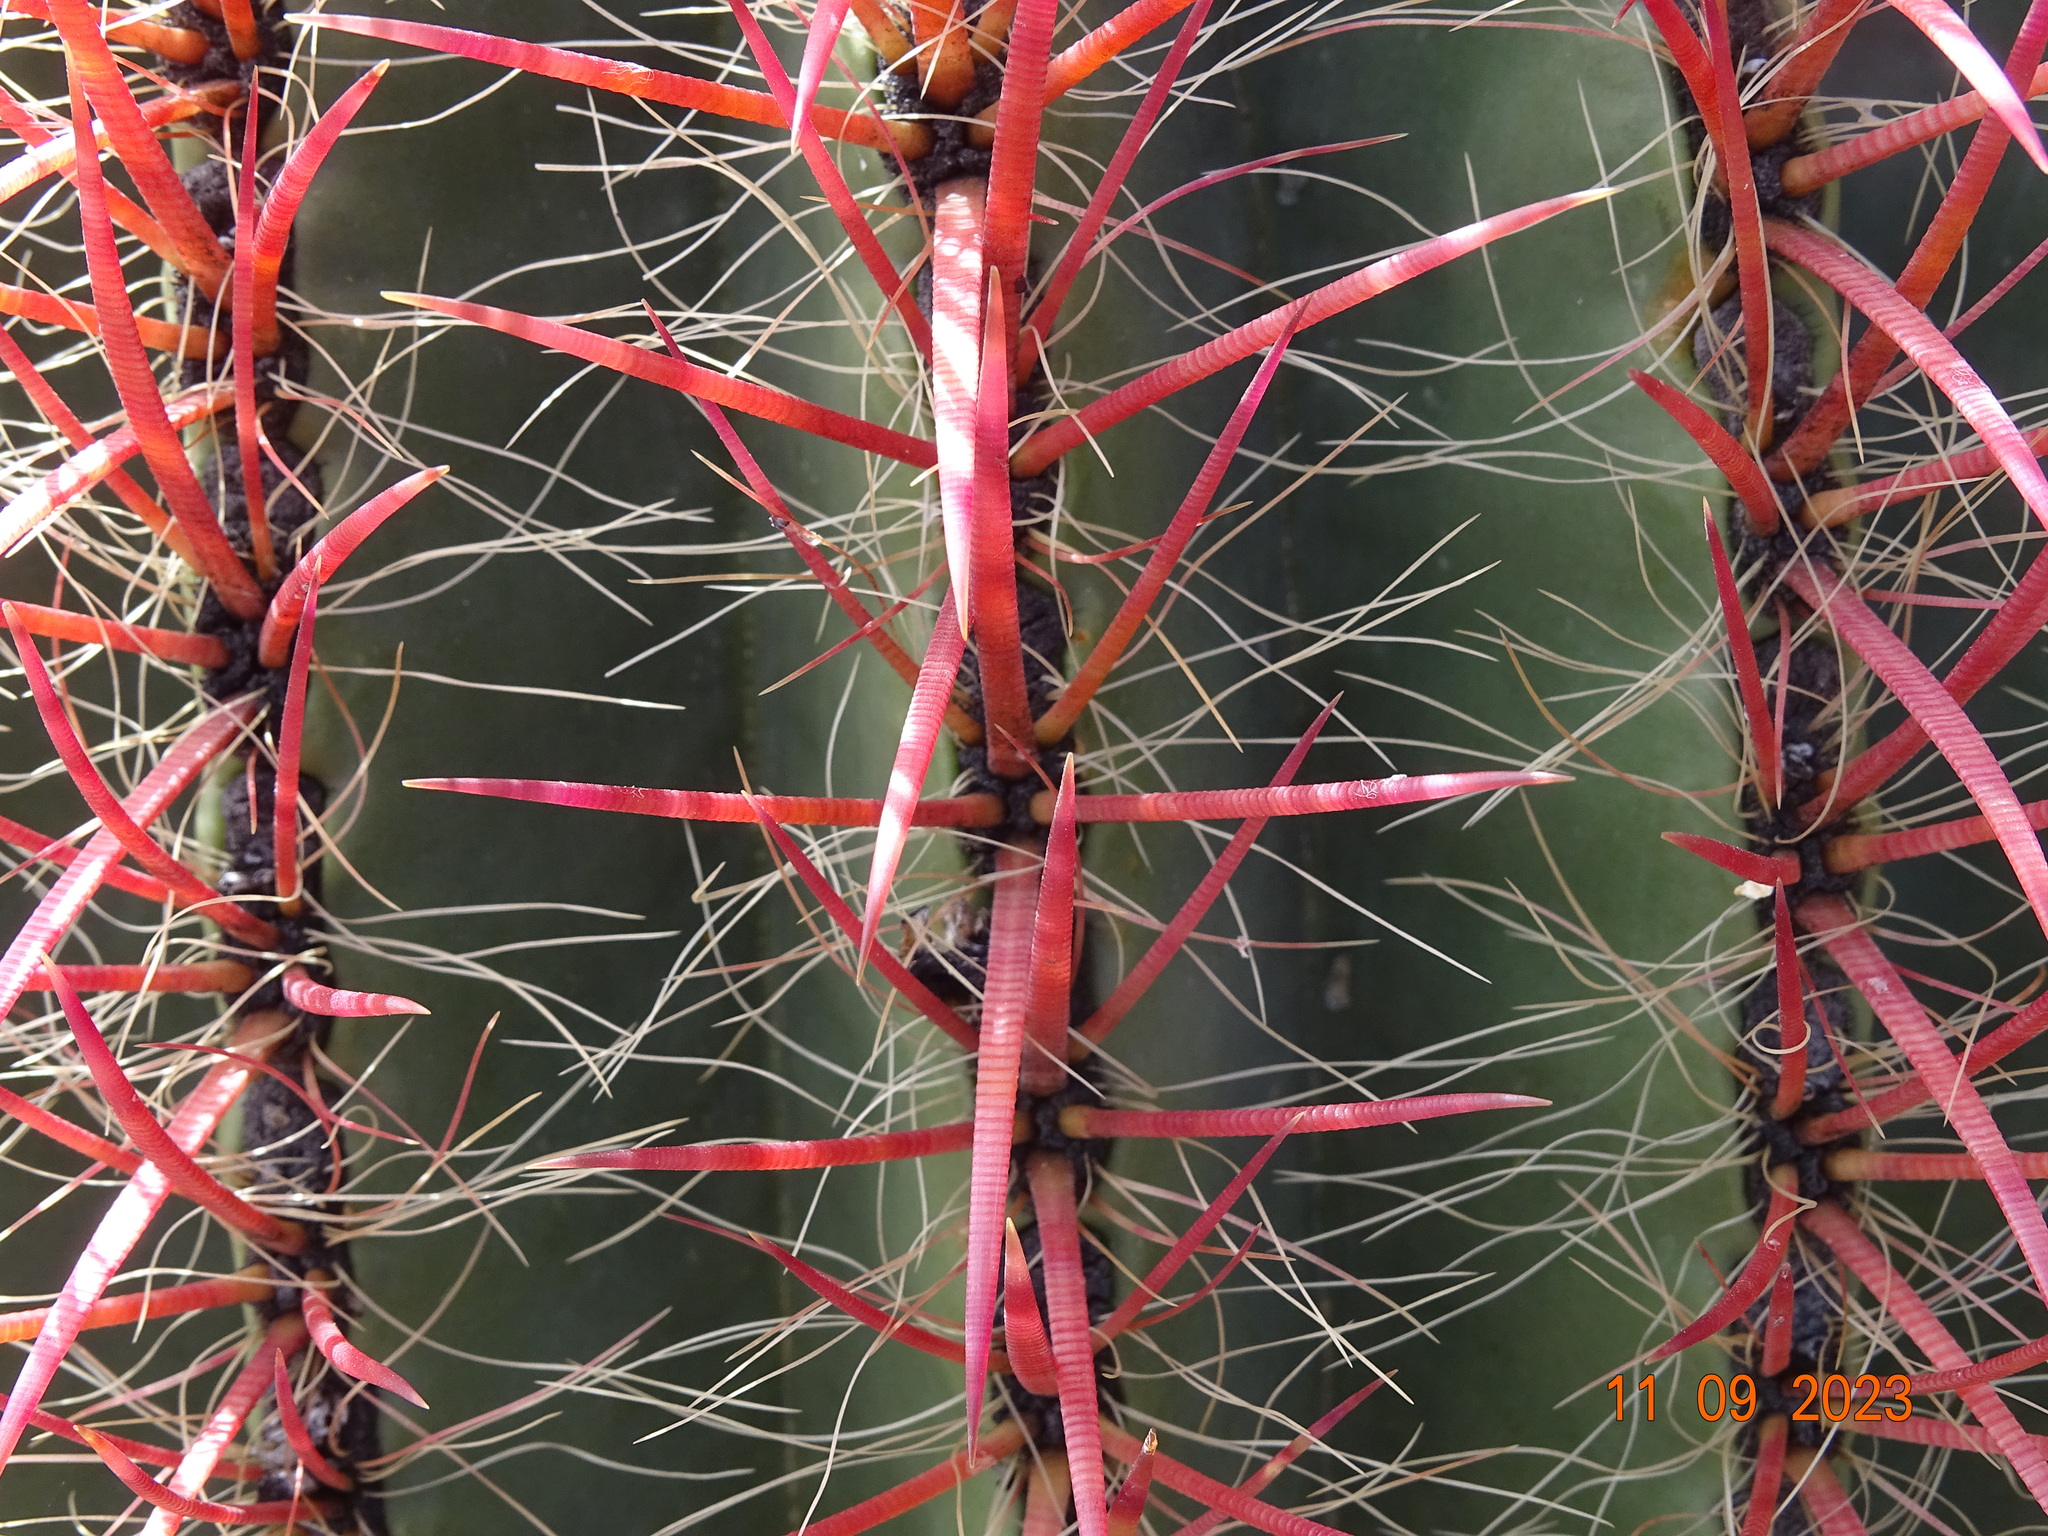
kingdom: Plantae
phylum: Tracheophyta
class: Magnoliopsida
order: Caryophyllales
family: Cactaceae
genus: Ferocactus
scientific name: Ferocactus pilosus
